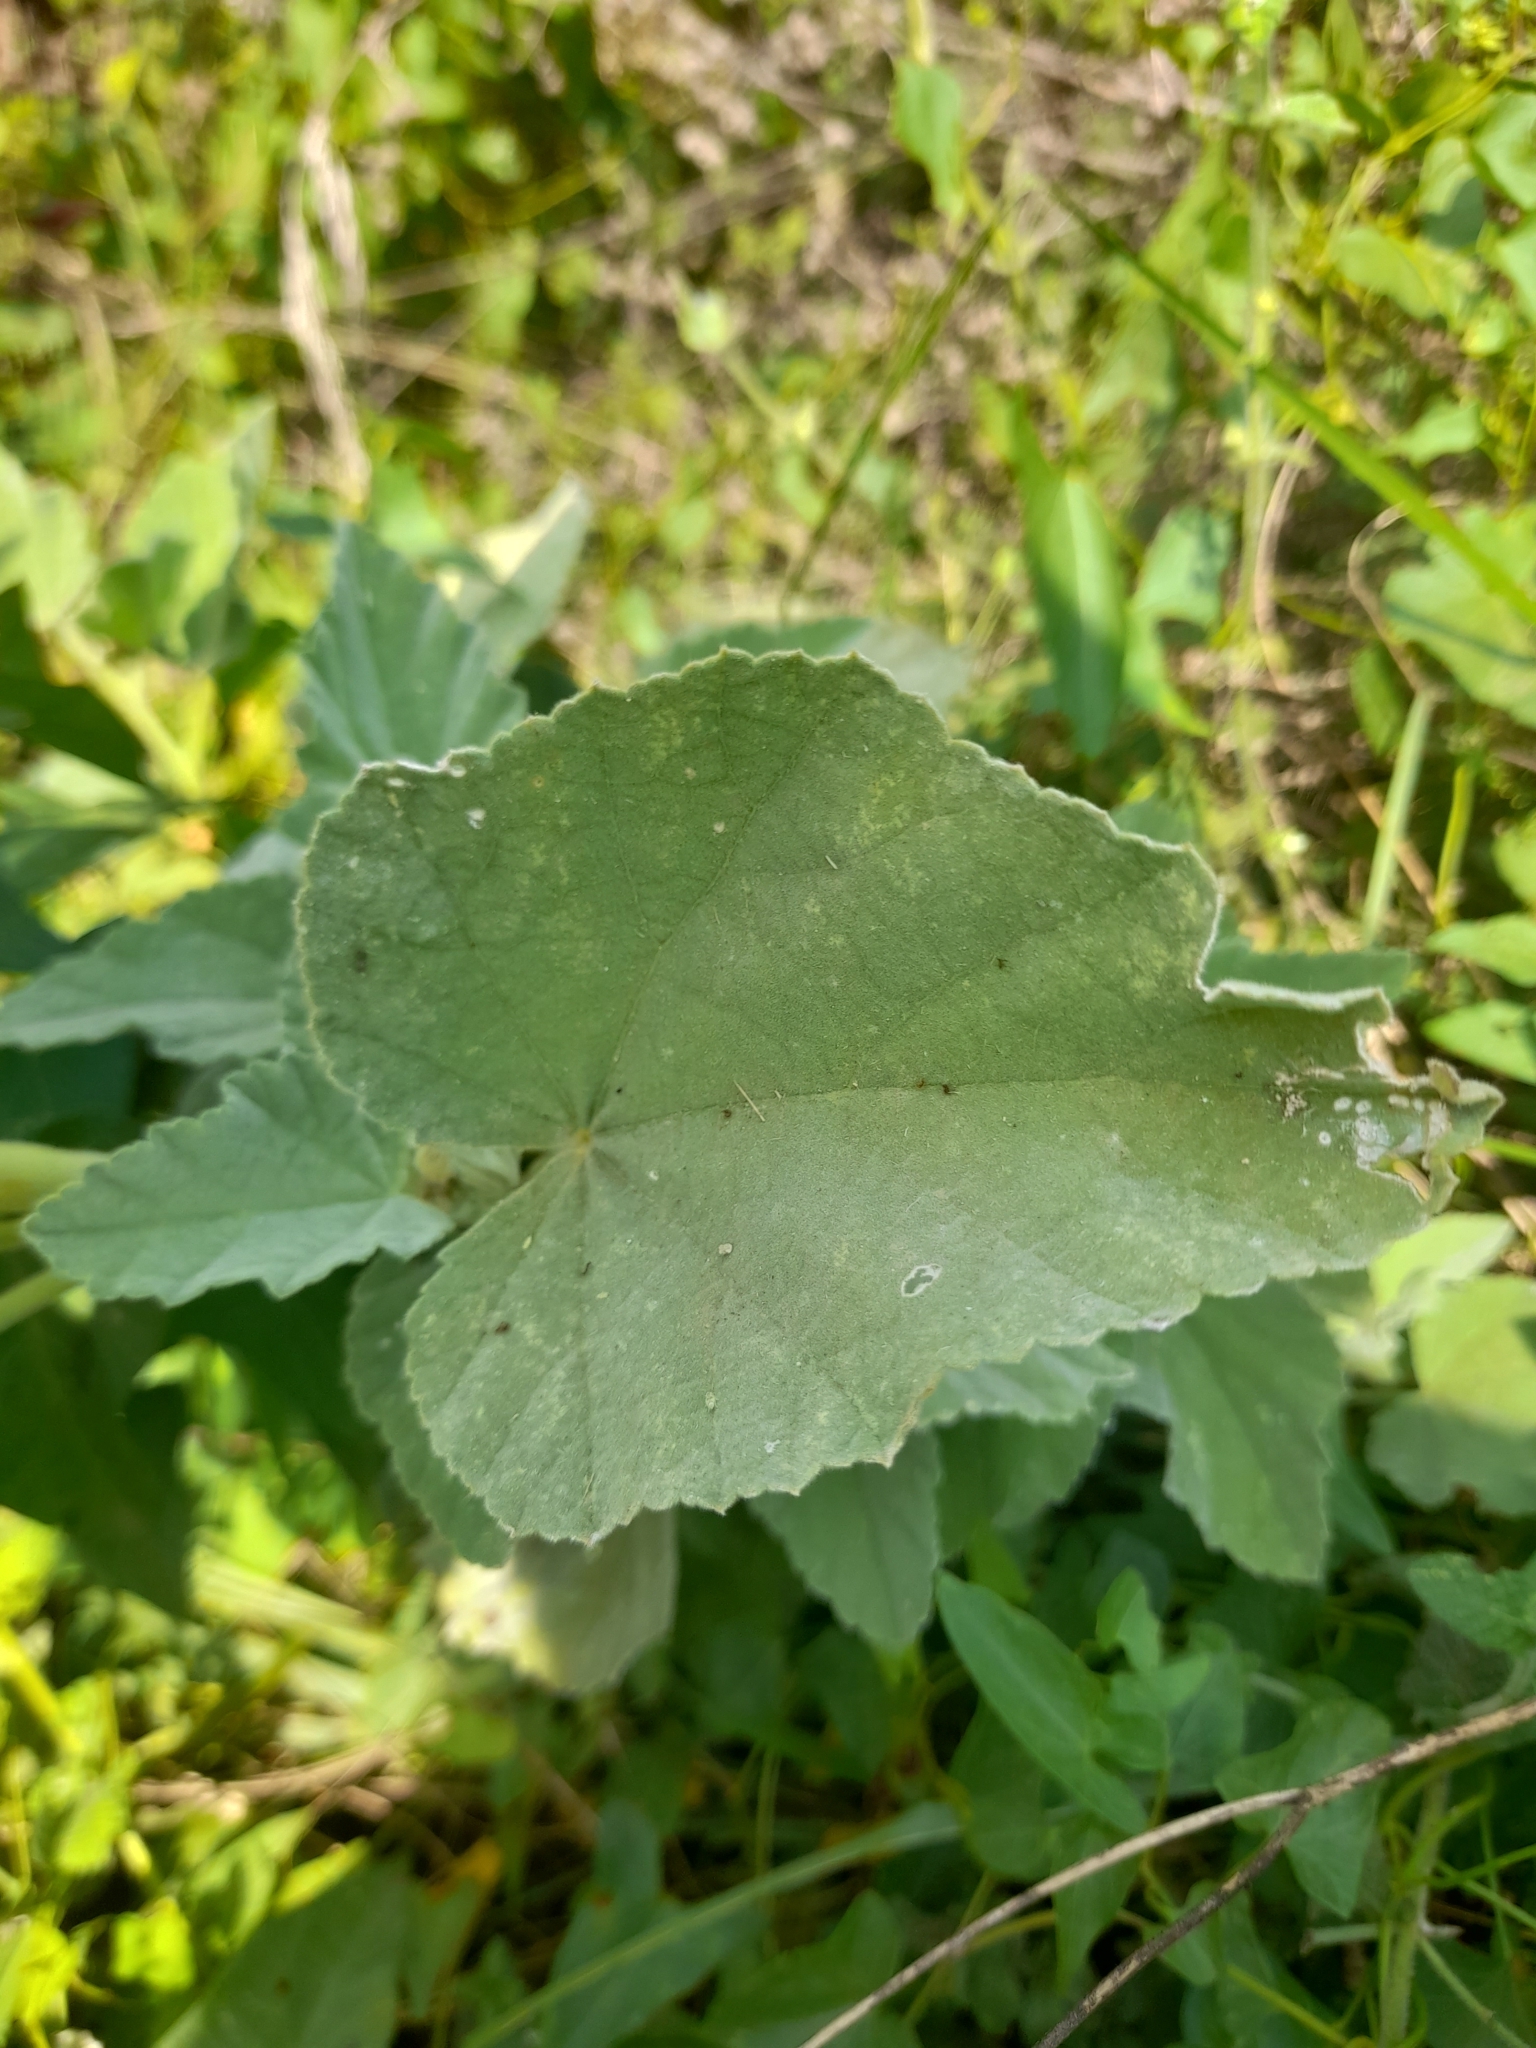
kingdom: Plantae
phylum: Tracheophyta
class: Magnoliopsida
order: Malvales
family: Malvaceae
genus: Althaea
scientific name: Althaea officinalis
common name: Marsh-mallow
